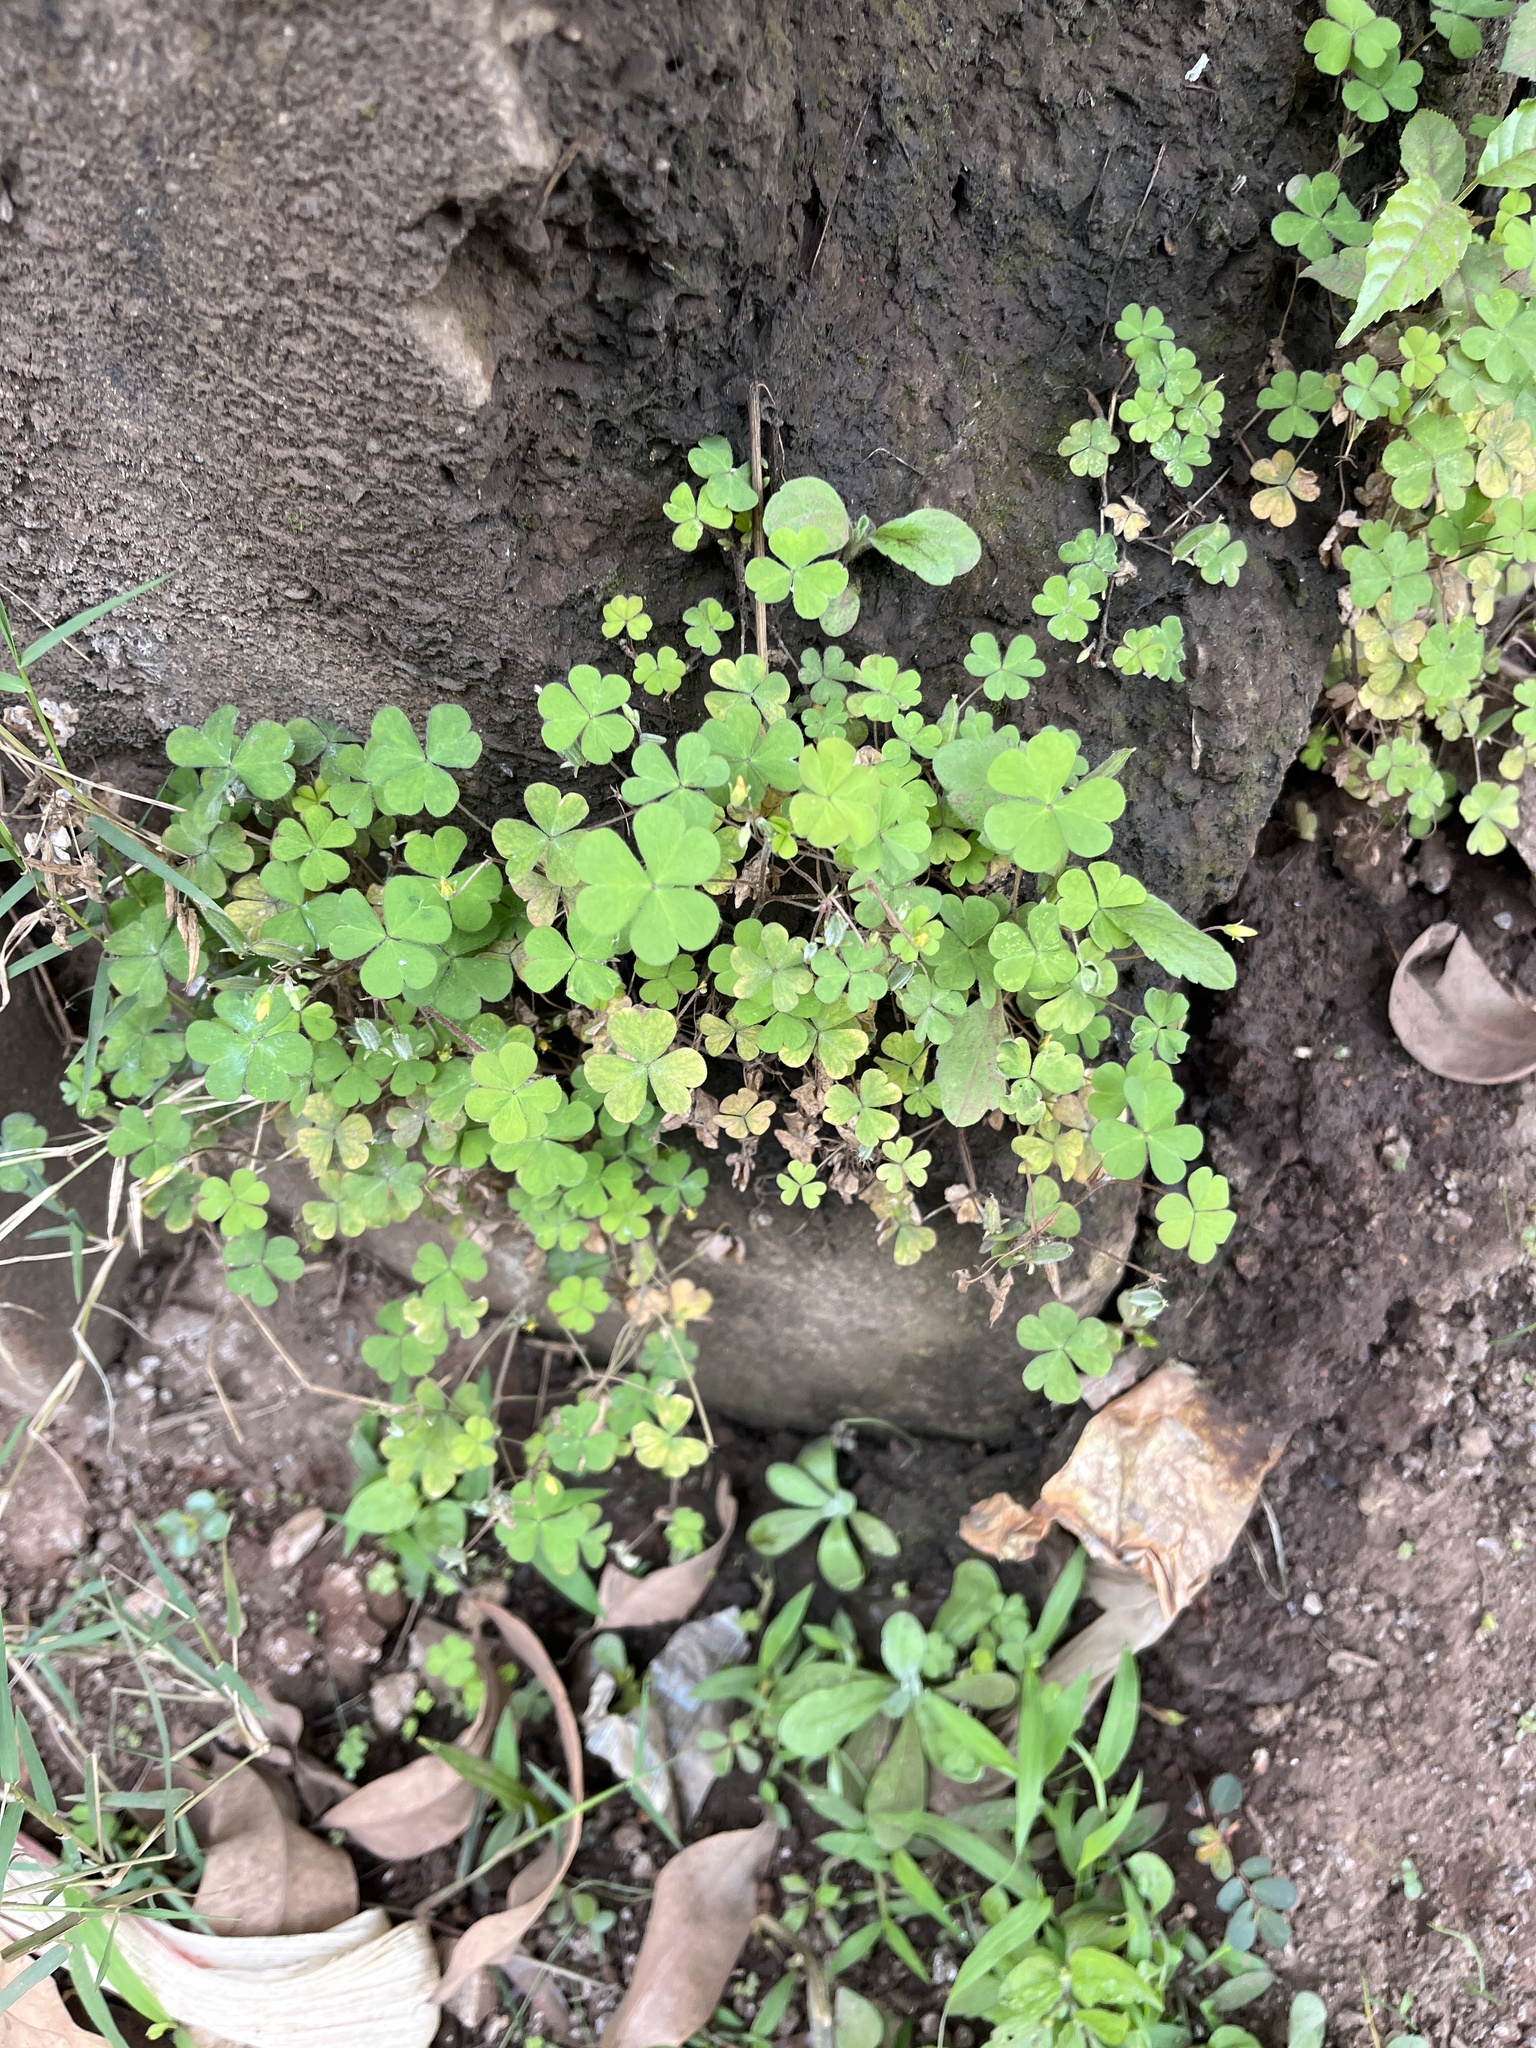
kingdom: Plantae
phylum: Tracheophyta
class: Magnoliopsida
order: Oxalidales
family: Oxalidaceae
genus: Oxalis
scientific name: Oxalis corniculata
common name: Procumbent yellow-sorrel
